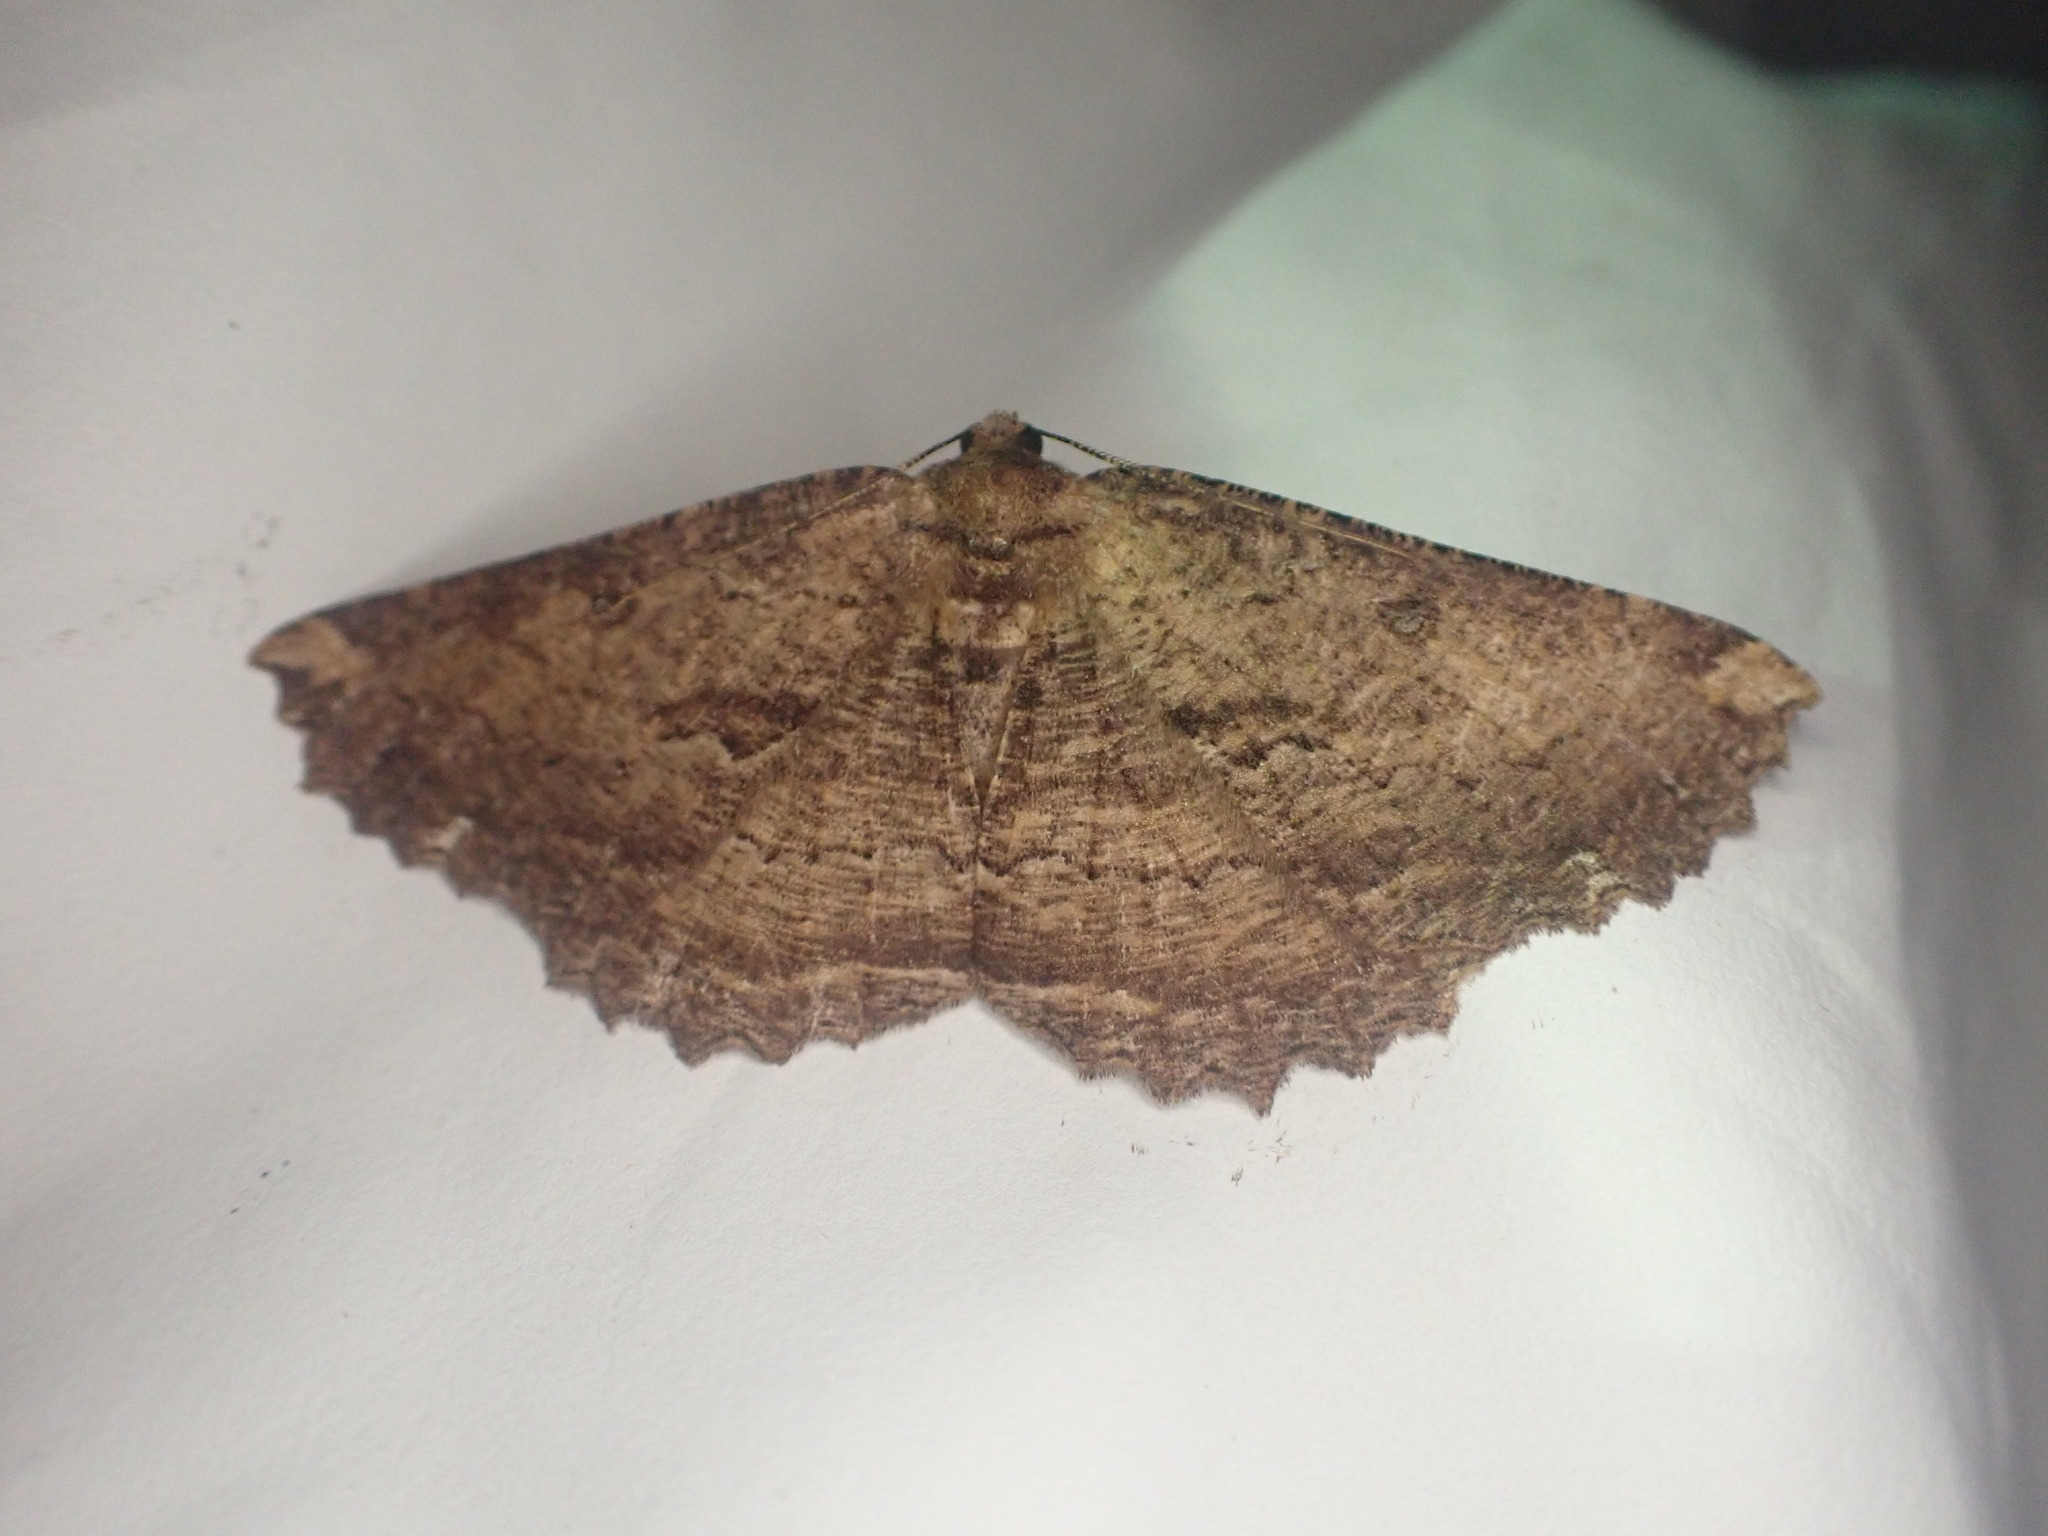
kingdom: Animalia
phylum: Arthropoda
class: Insecta
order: Lepidoptera
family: Geometridae
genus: Gellonia
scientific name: Gellonia dejectaria
